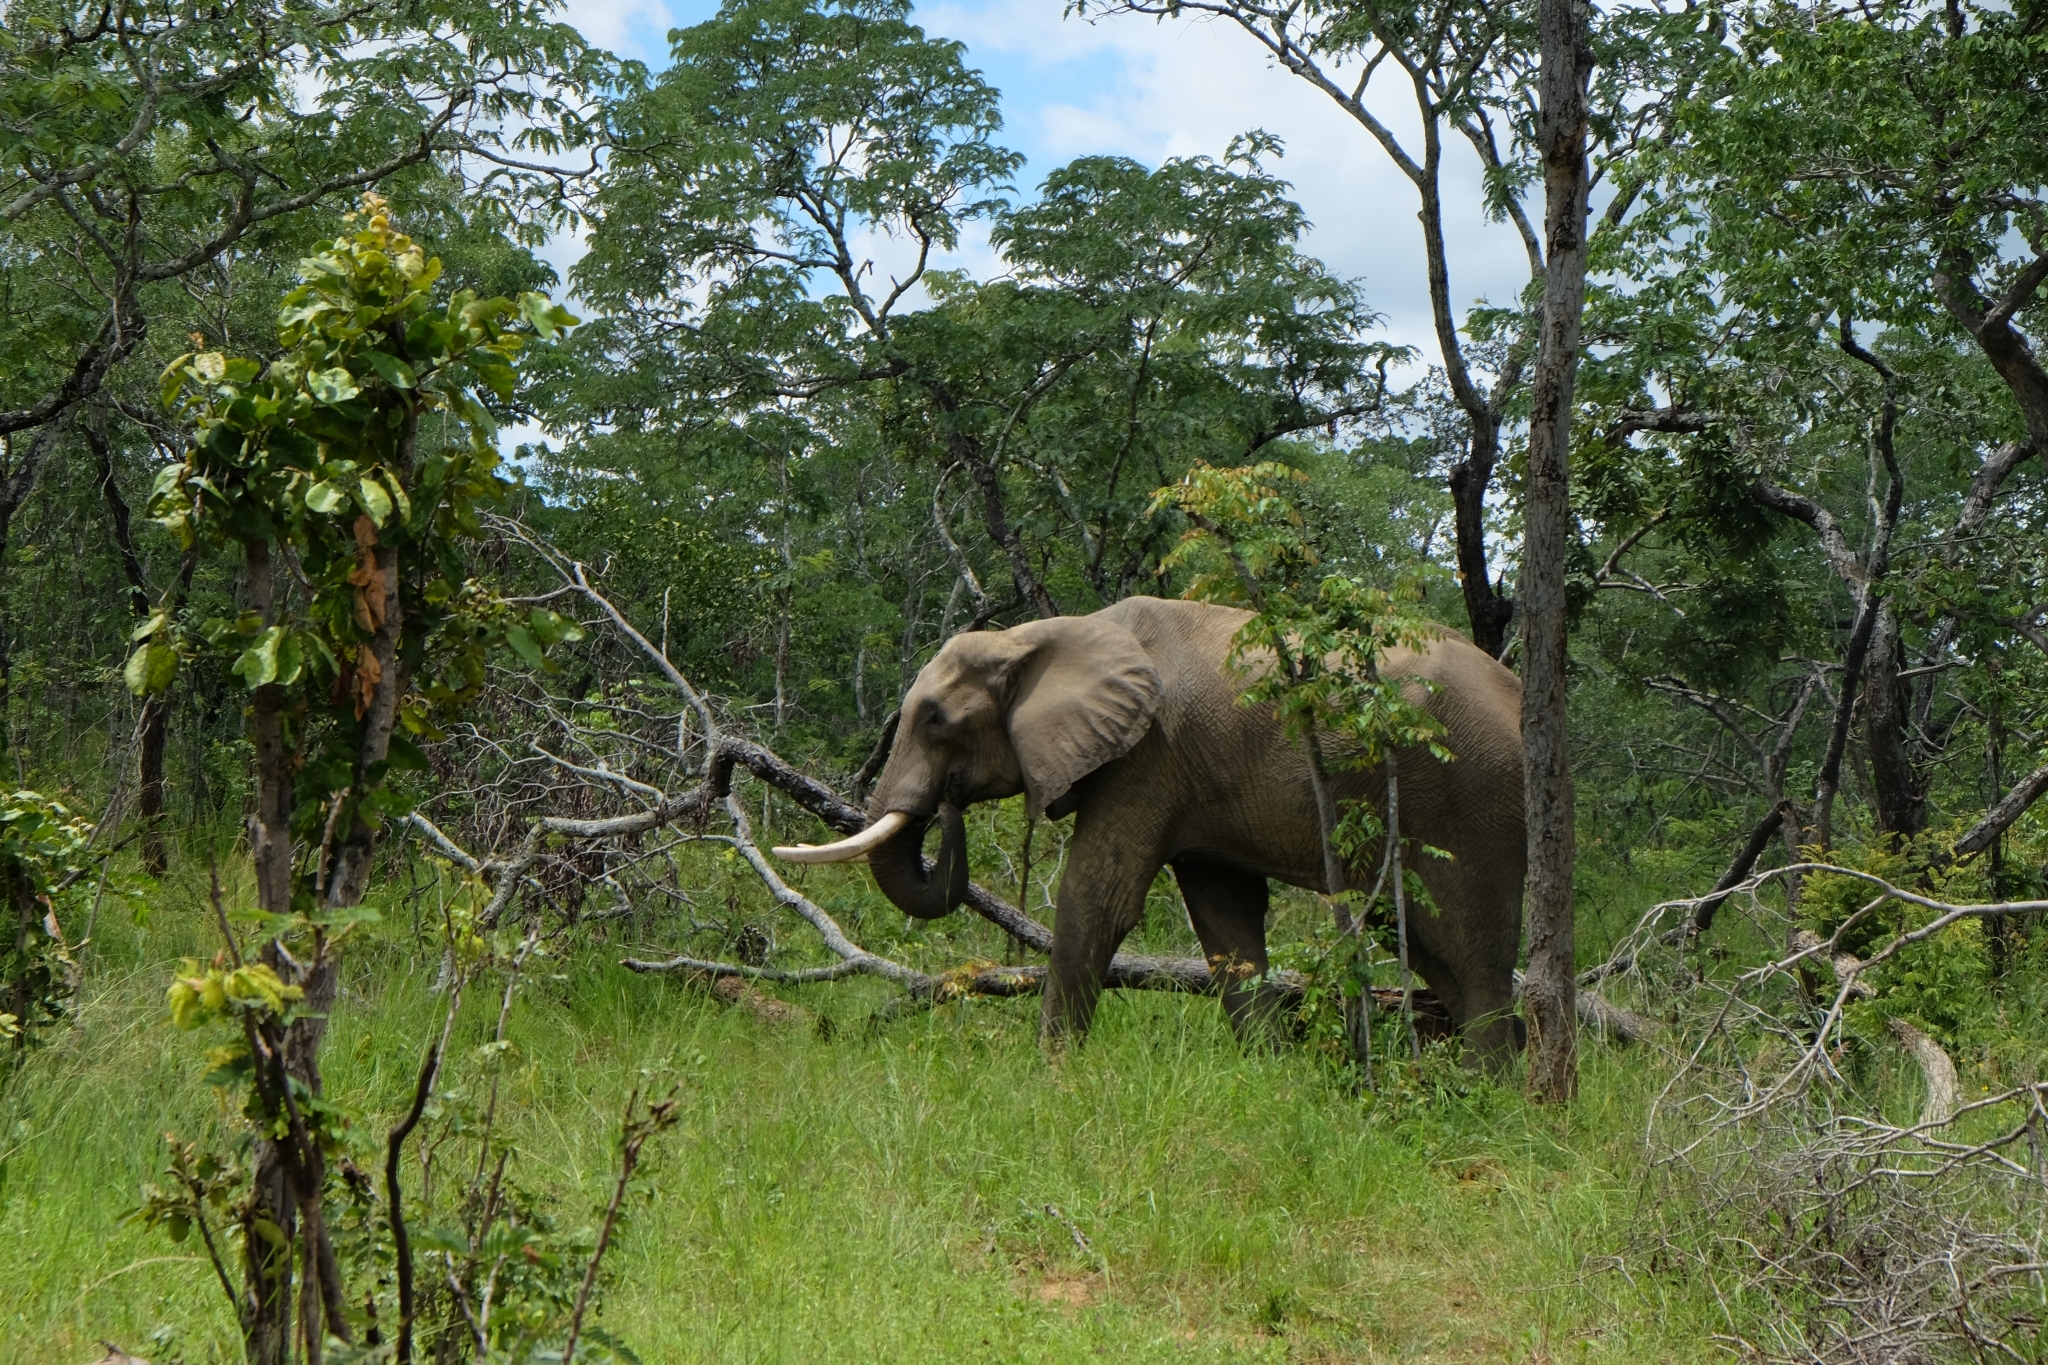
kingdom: Animalia
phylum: Chordata
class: Mammalia
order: Proboscidea
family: Elephantidae
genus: Loxodonta
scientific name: Loxodonta africana
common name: African elephant
